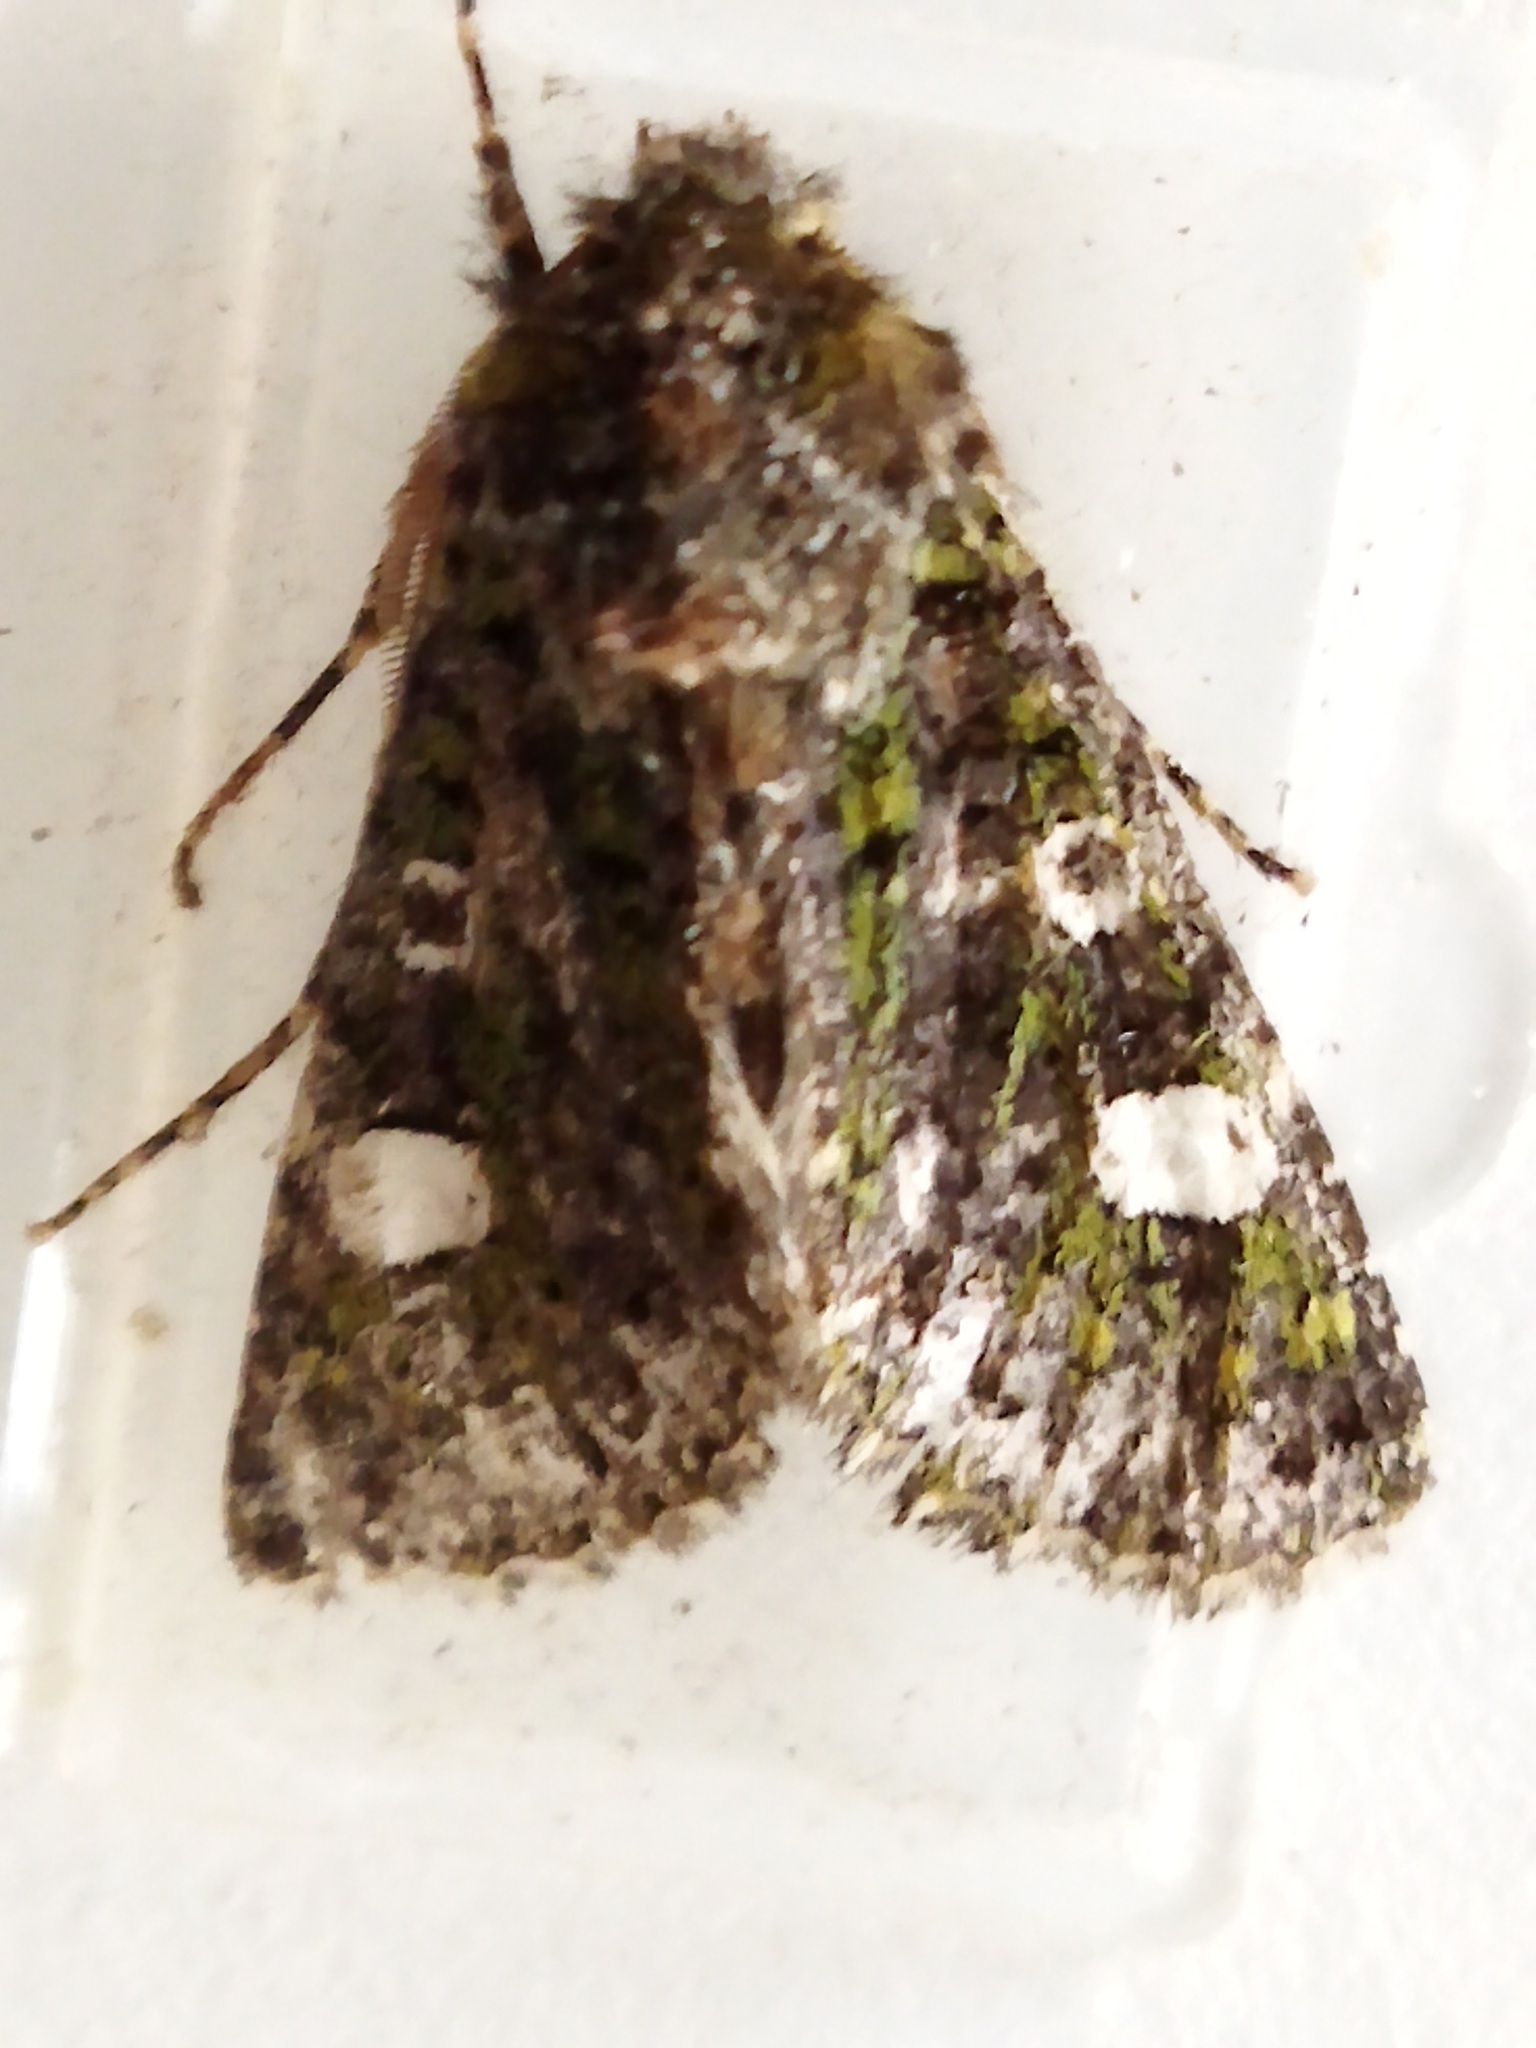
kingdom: Animalia
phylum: Arthropoda
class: Insecta
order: Lepidoptera
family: Noctuidae
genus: Valeria
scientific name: Valeria oleagina
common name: Green-brindled dot
